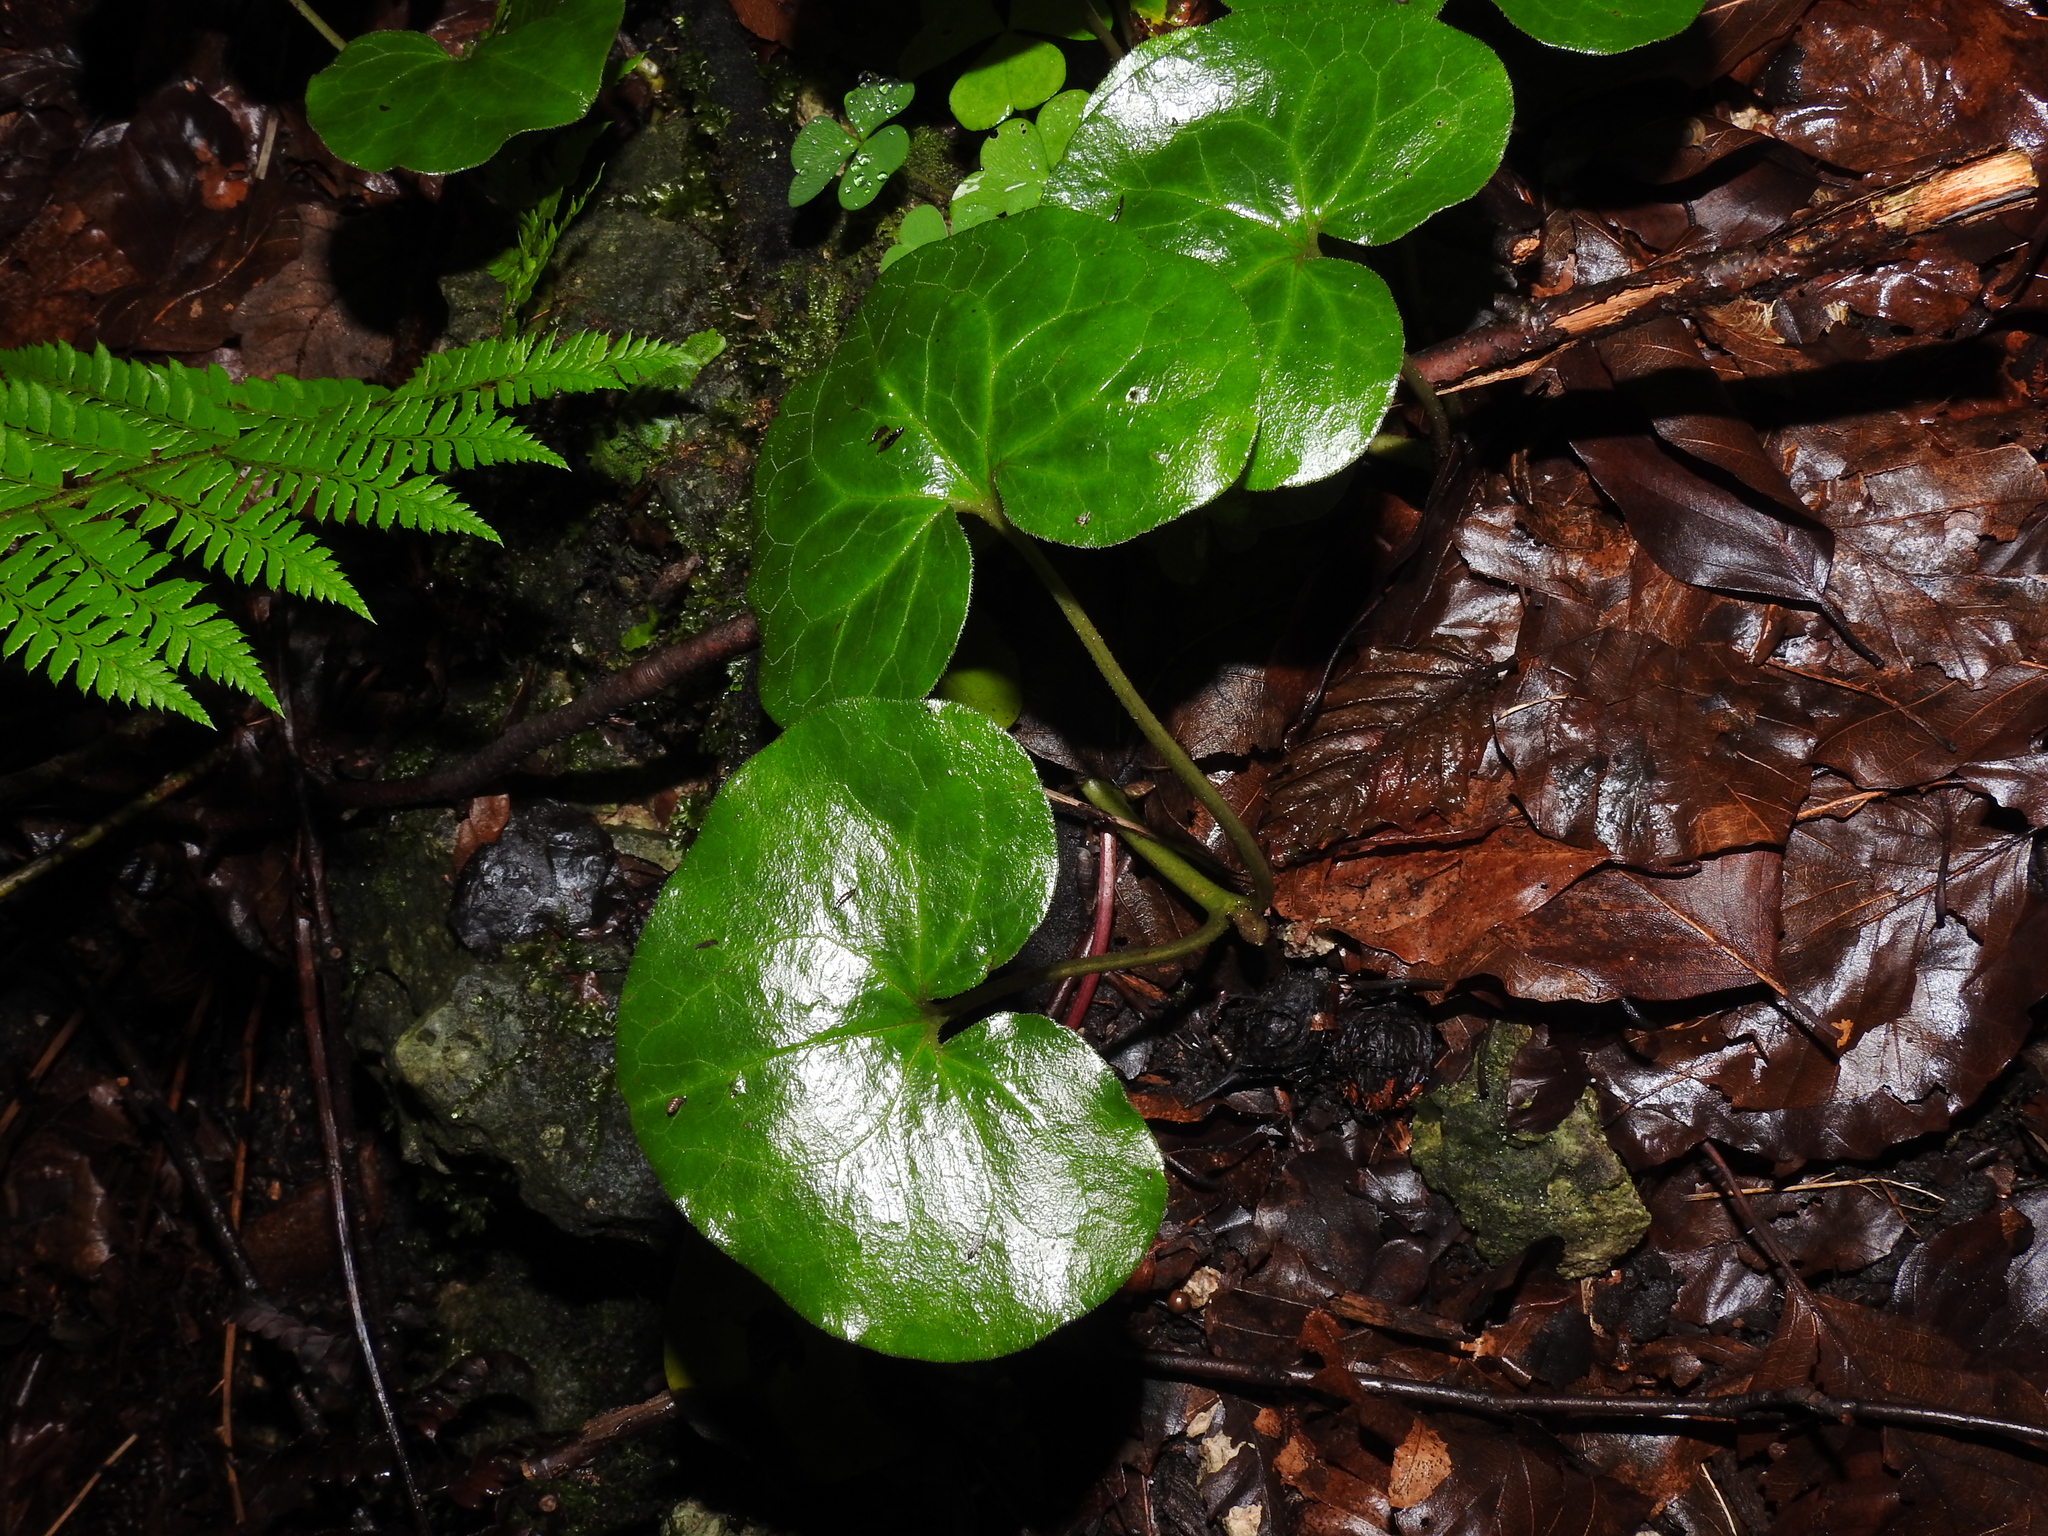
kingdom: Plantae
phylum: Tracheophyta
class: Magnoliopsida
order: Piperales
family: Aristolochiaceae
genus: Asarum
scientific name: Asarum europaeum
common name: Asarabacca
